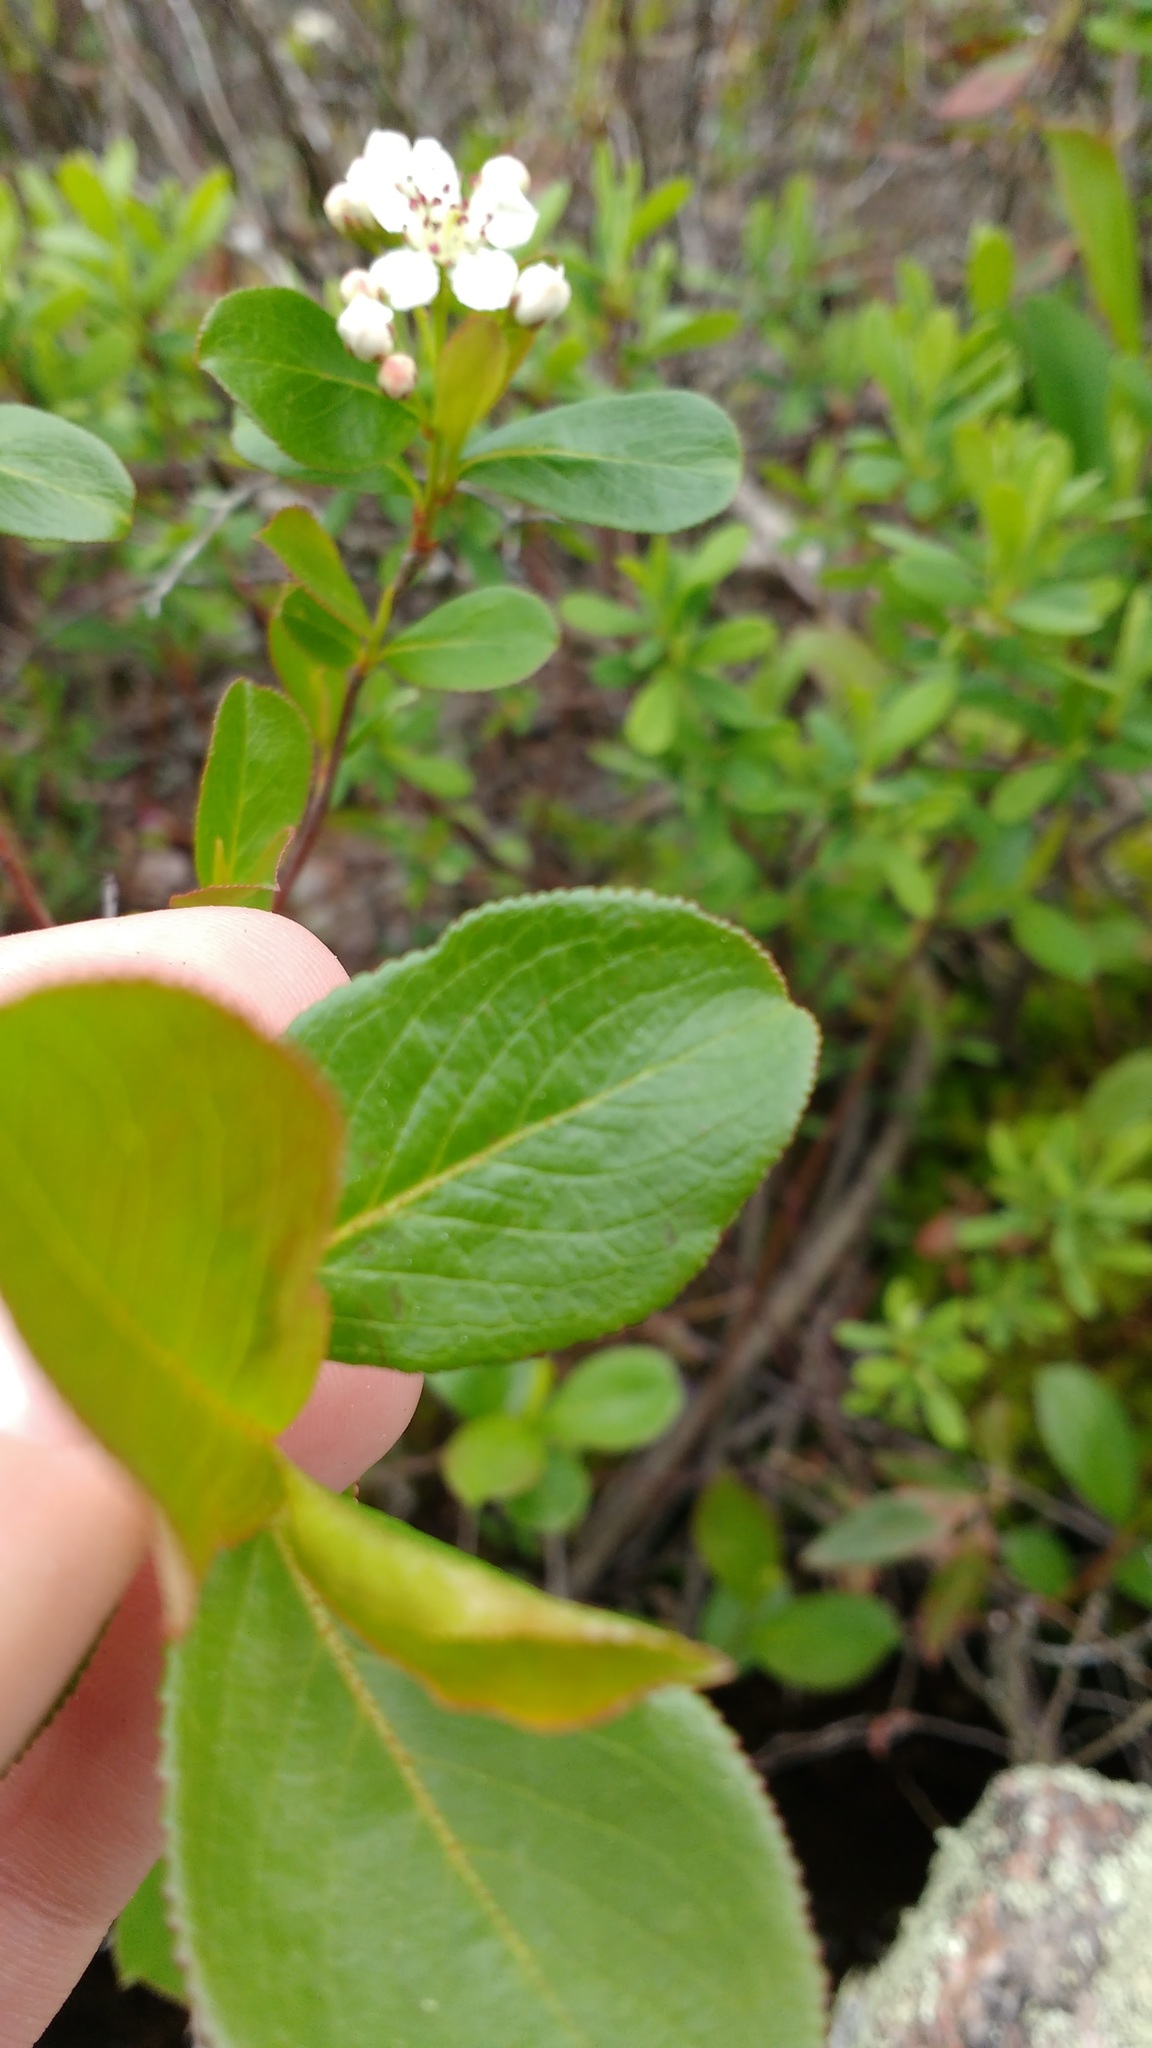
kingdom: Plantae
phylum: Tracheophyta
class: Magnoliopsida
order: Rosales
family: Rosaceae
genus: Aronia
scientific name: Aronia melanocarpa
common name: Black chokeberry
